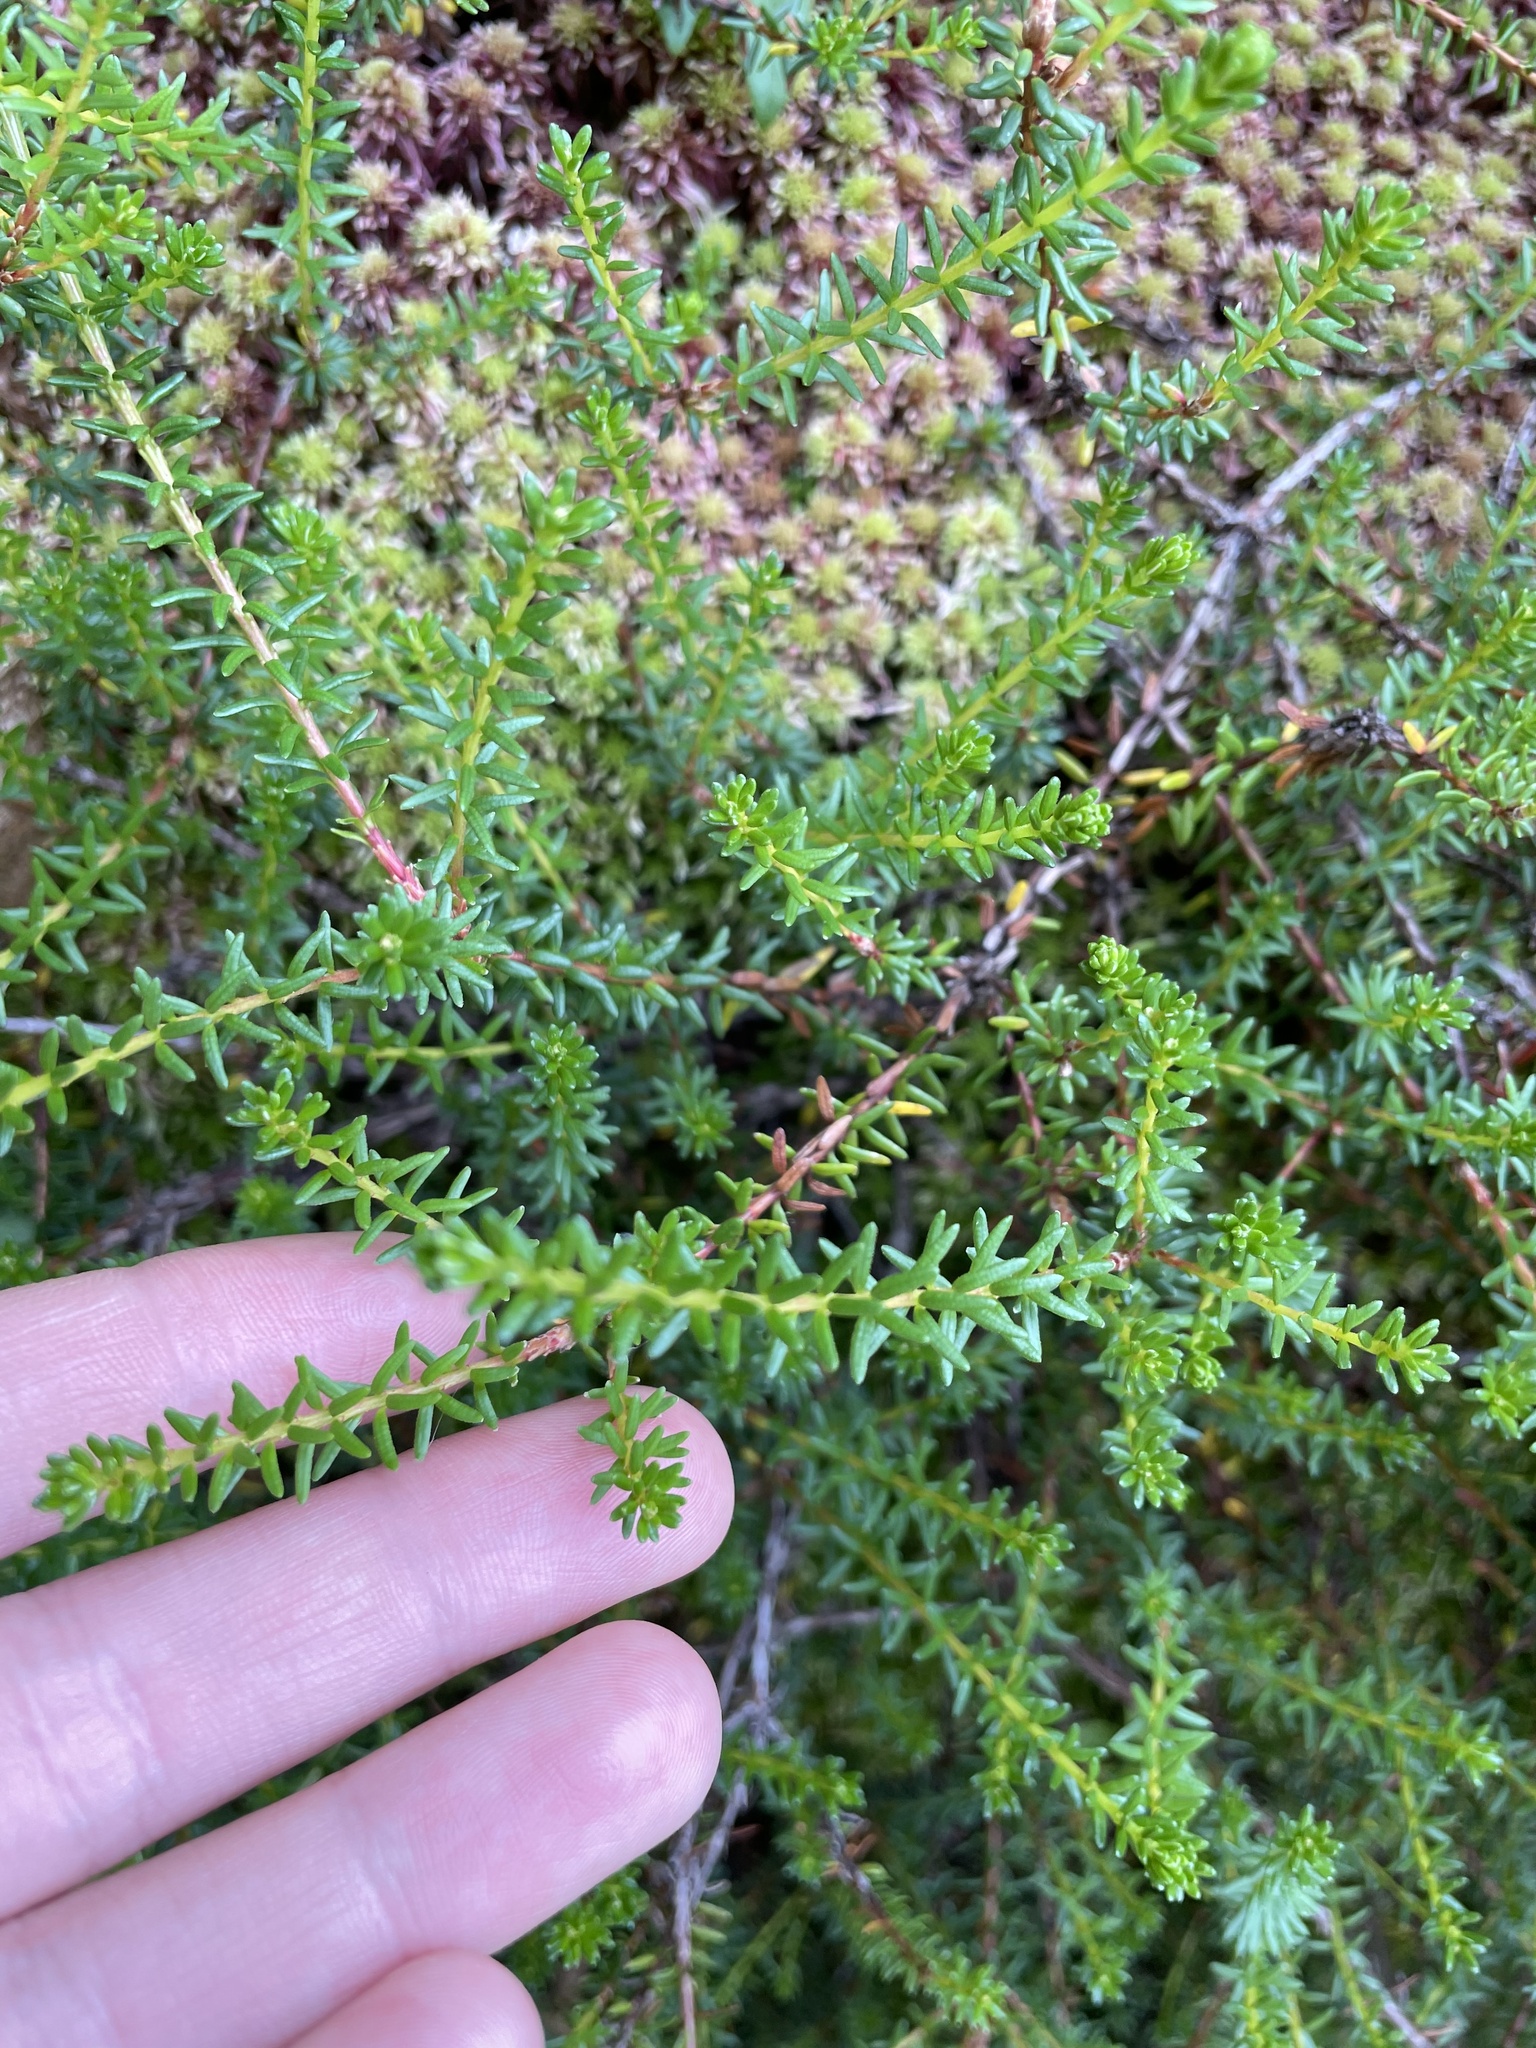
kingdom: Plantae
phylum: Tracheophyta
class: Magnoliopsida
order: Ericales
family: Ericaceae
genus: Empetrum
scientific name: Empetrum nigrum
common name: Black crowberry
